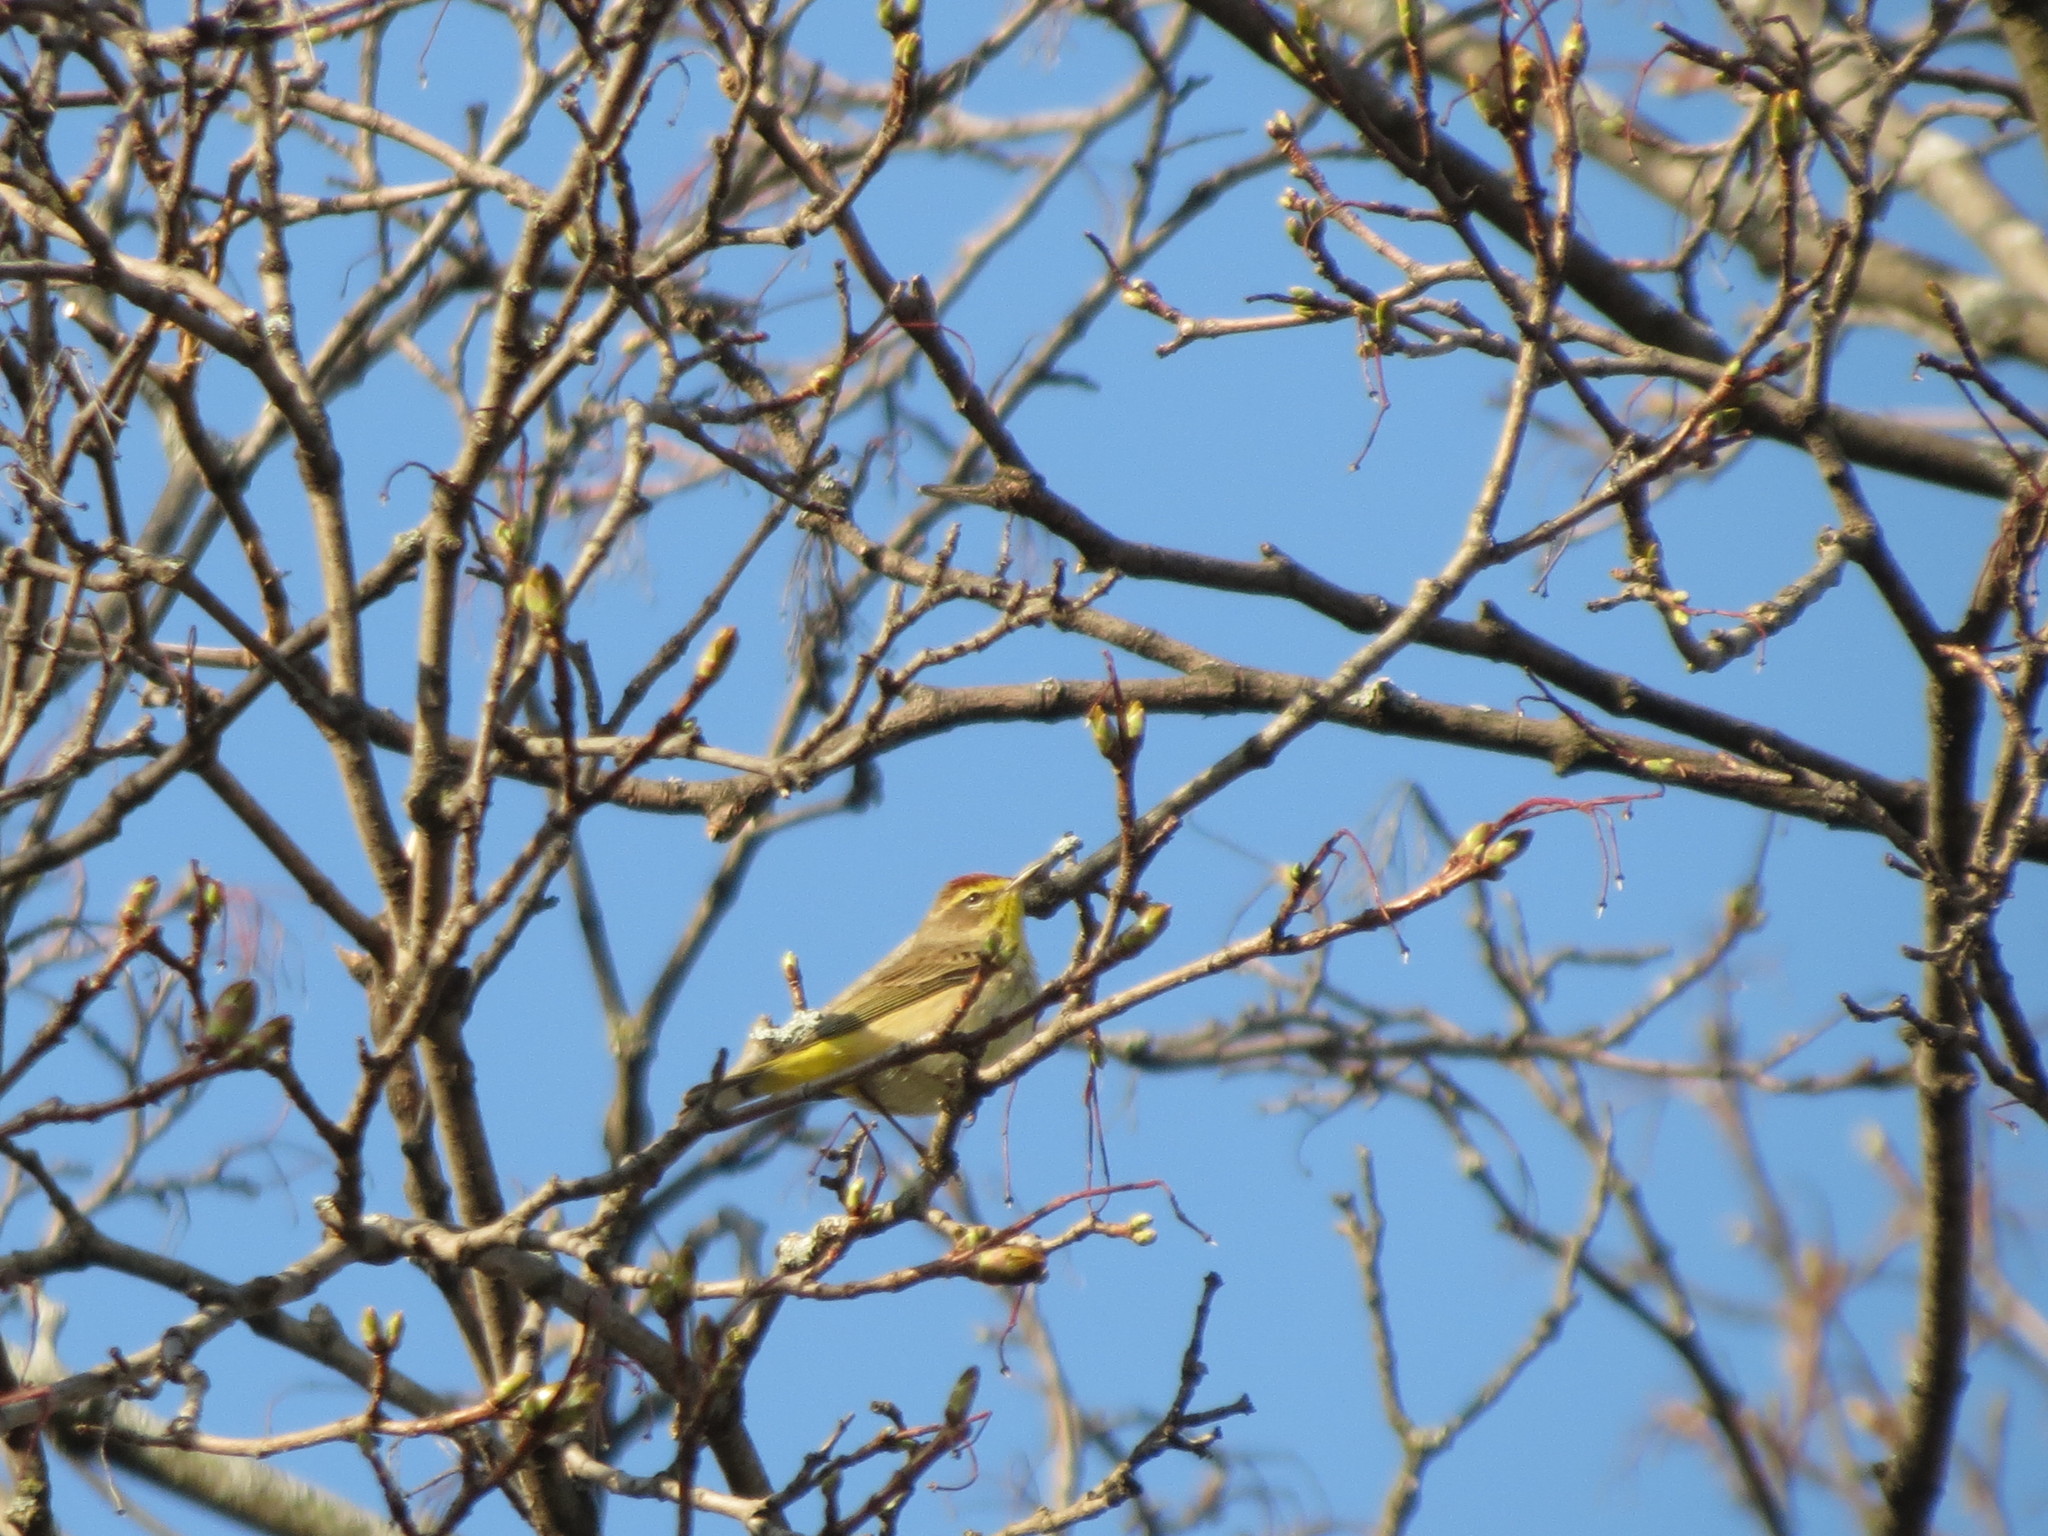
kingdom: Animalia
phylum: Chordata
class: Aves
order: Passeriformes
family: Parulidae
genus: Setophaga
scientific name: Setophaga palmarum
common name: Palm warbler
